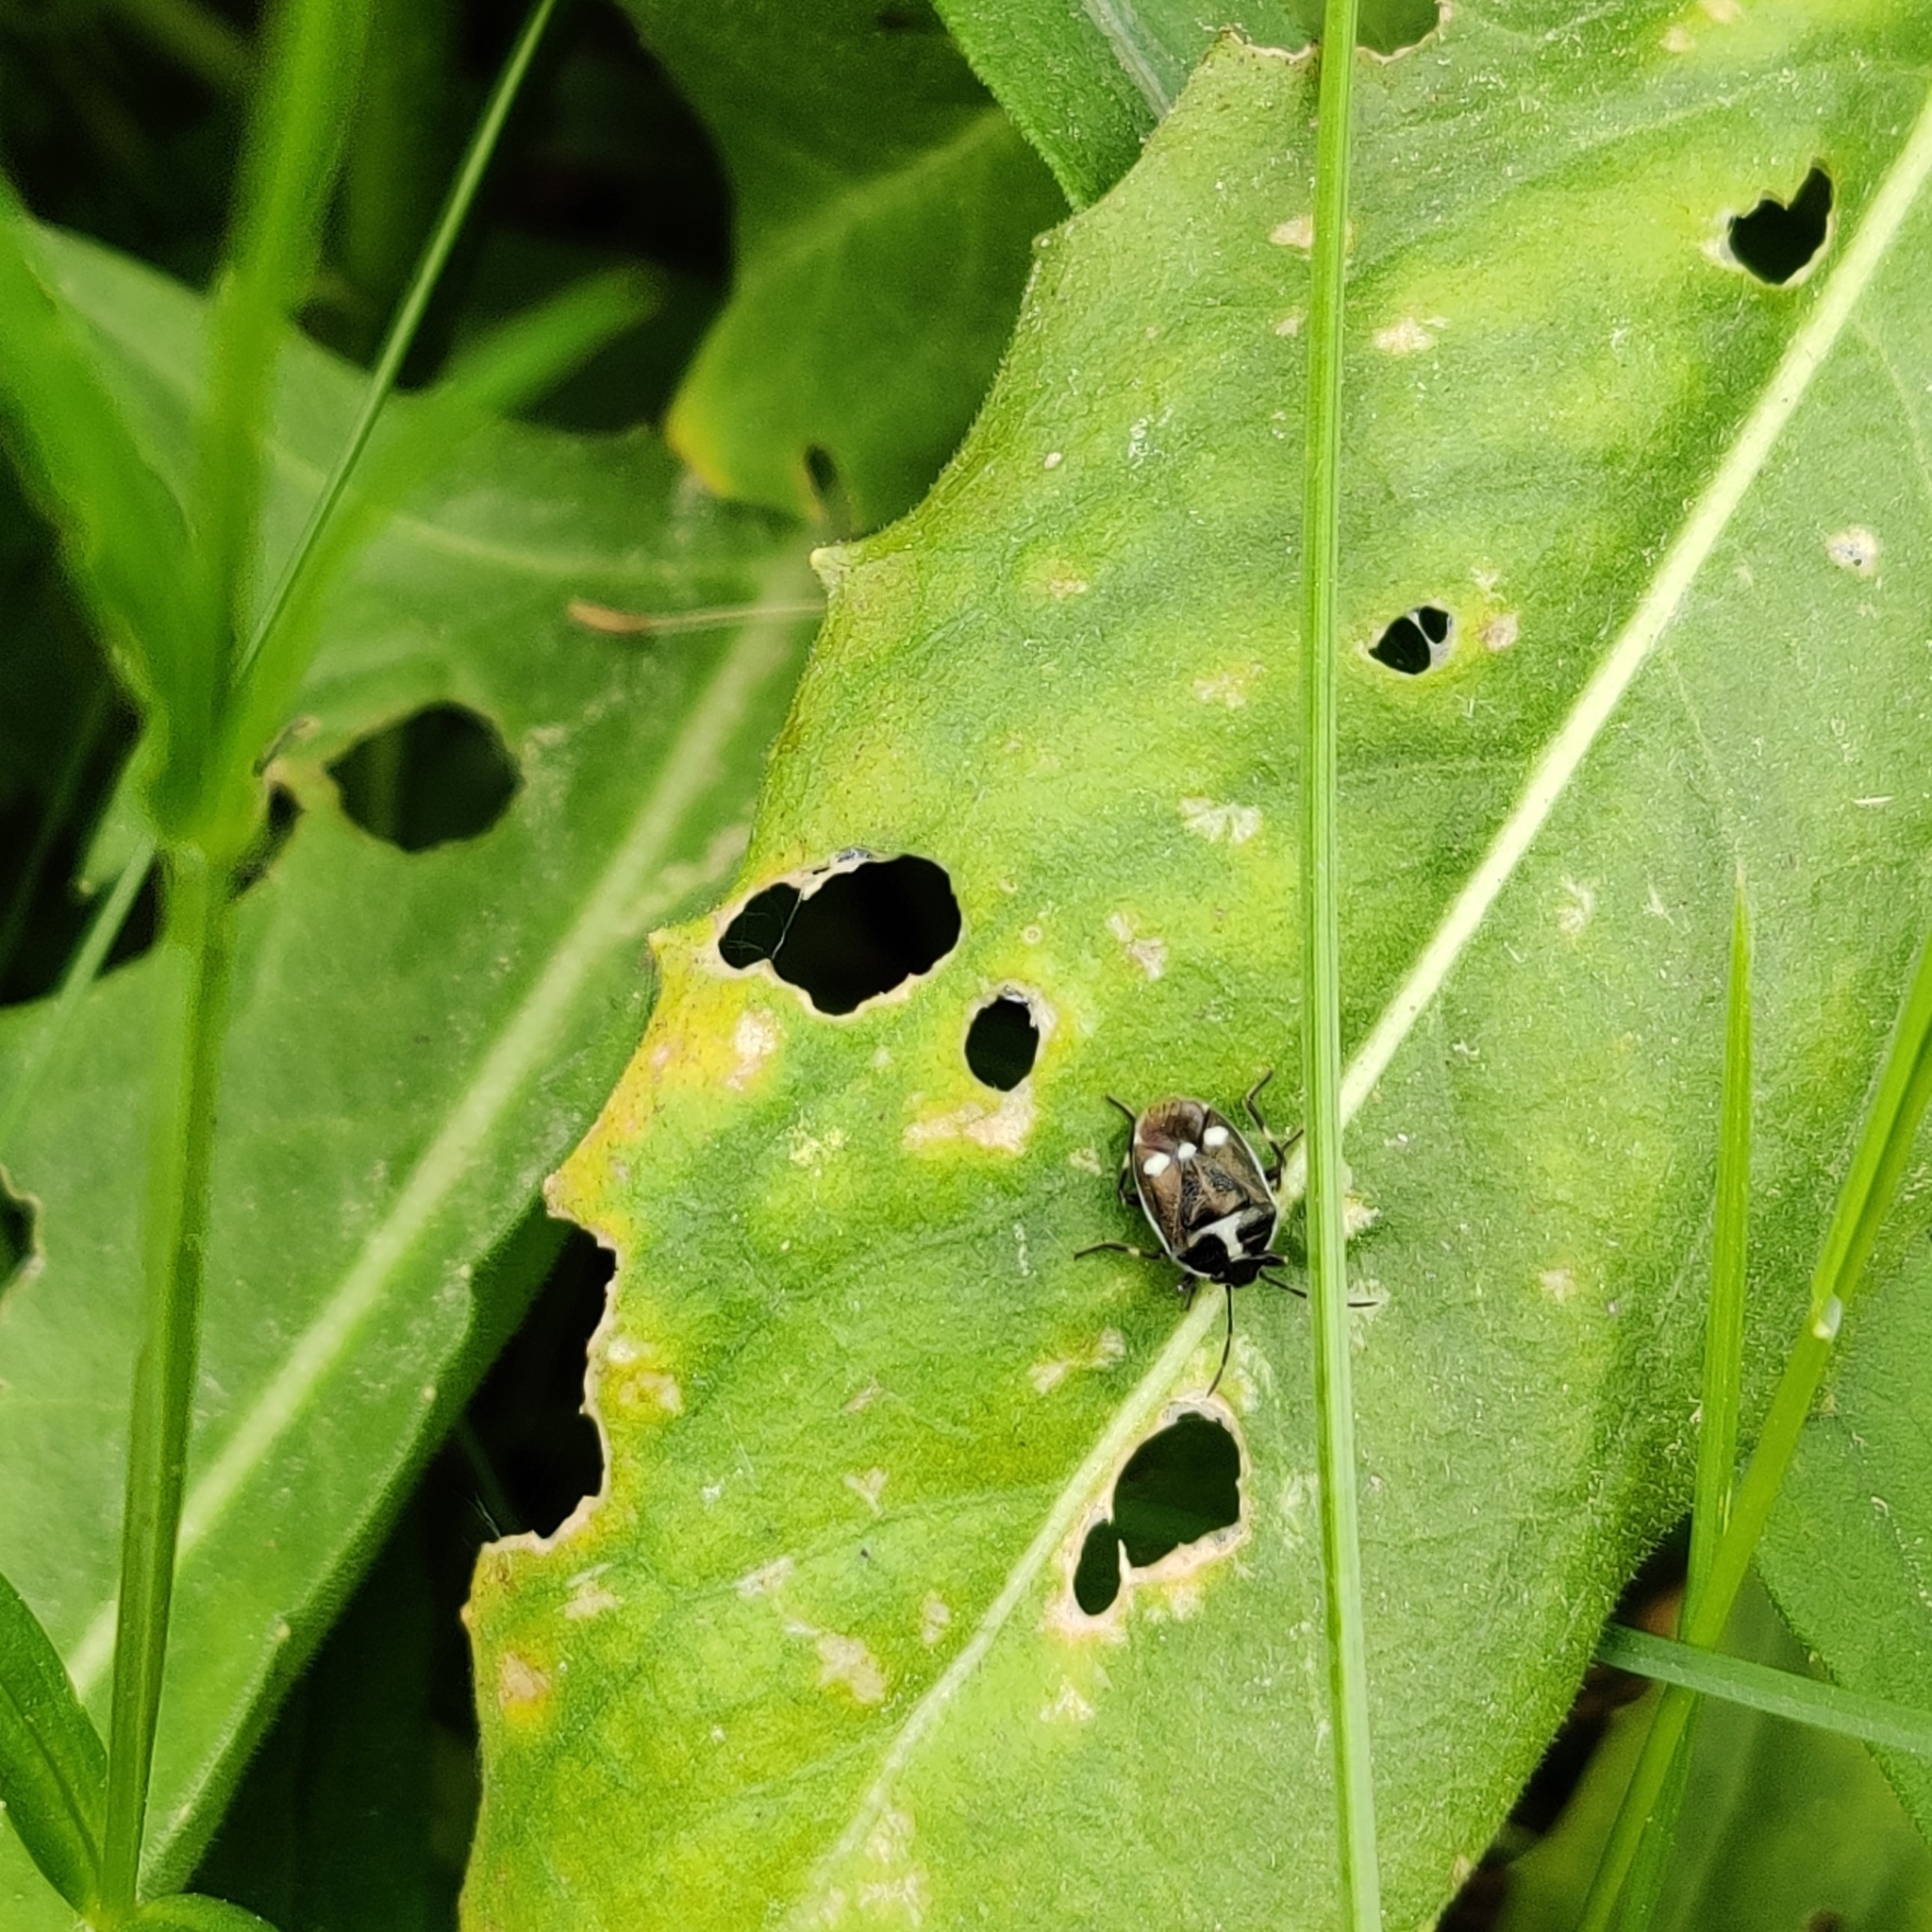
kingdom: Animalia
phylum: Arthropoda
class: Insecta
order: Hemiptera
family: Pentatomidae
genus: Eurydema
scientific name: Eurydema oleracea
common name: Cabbage bug
